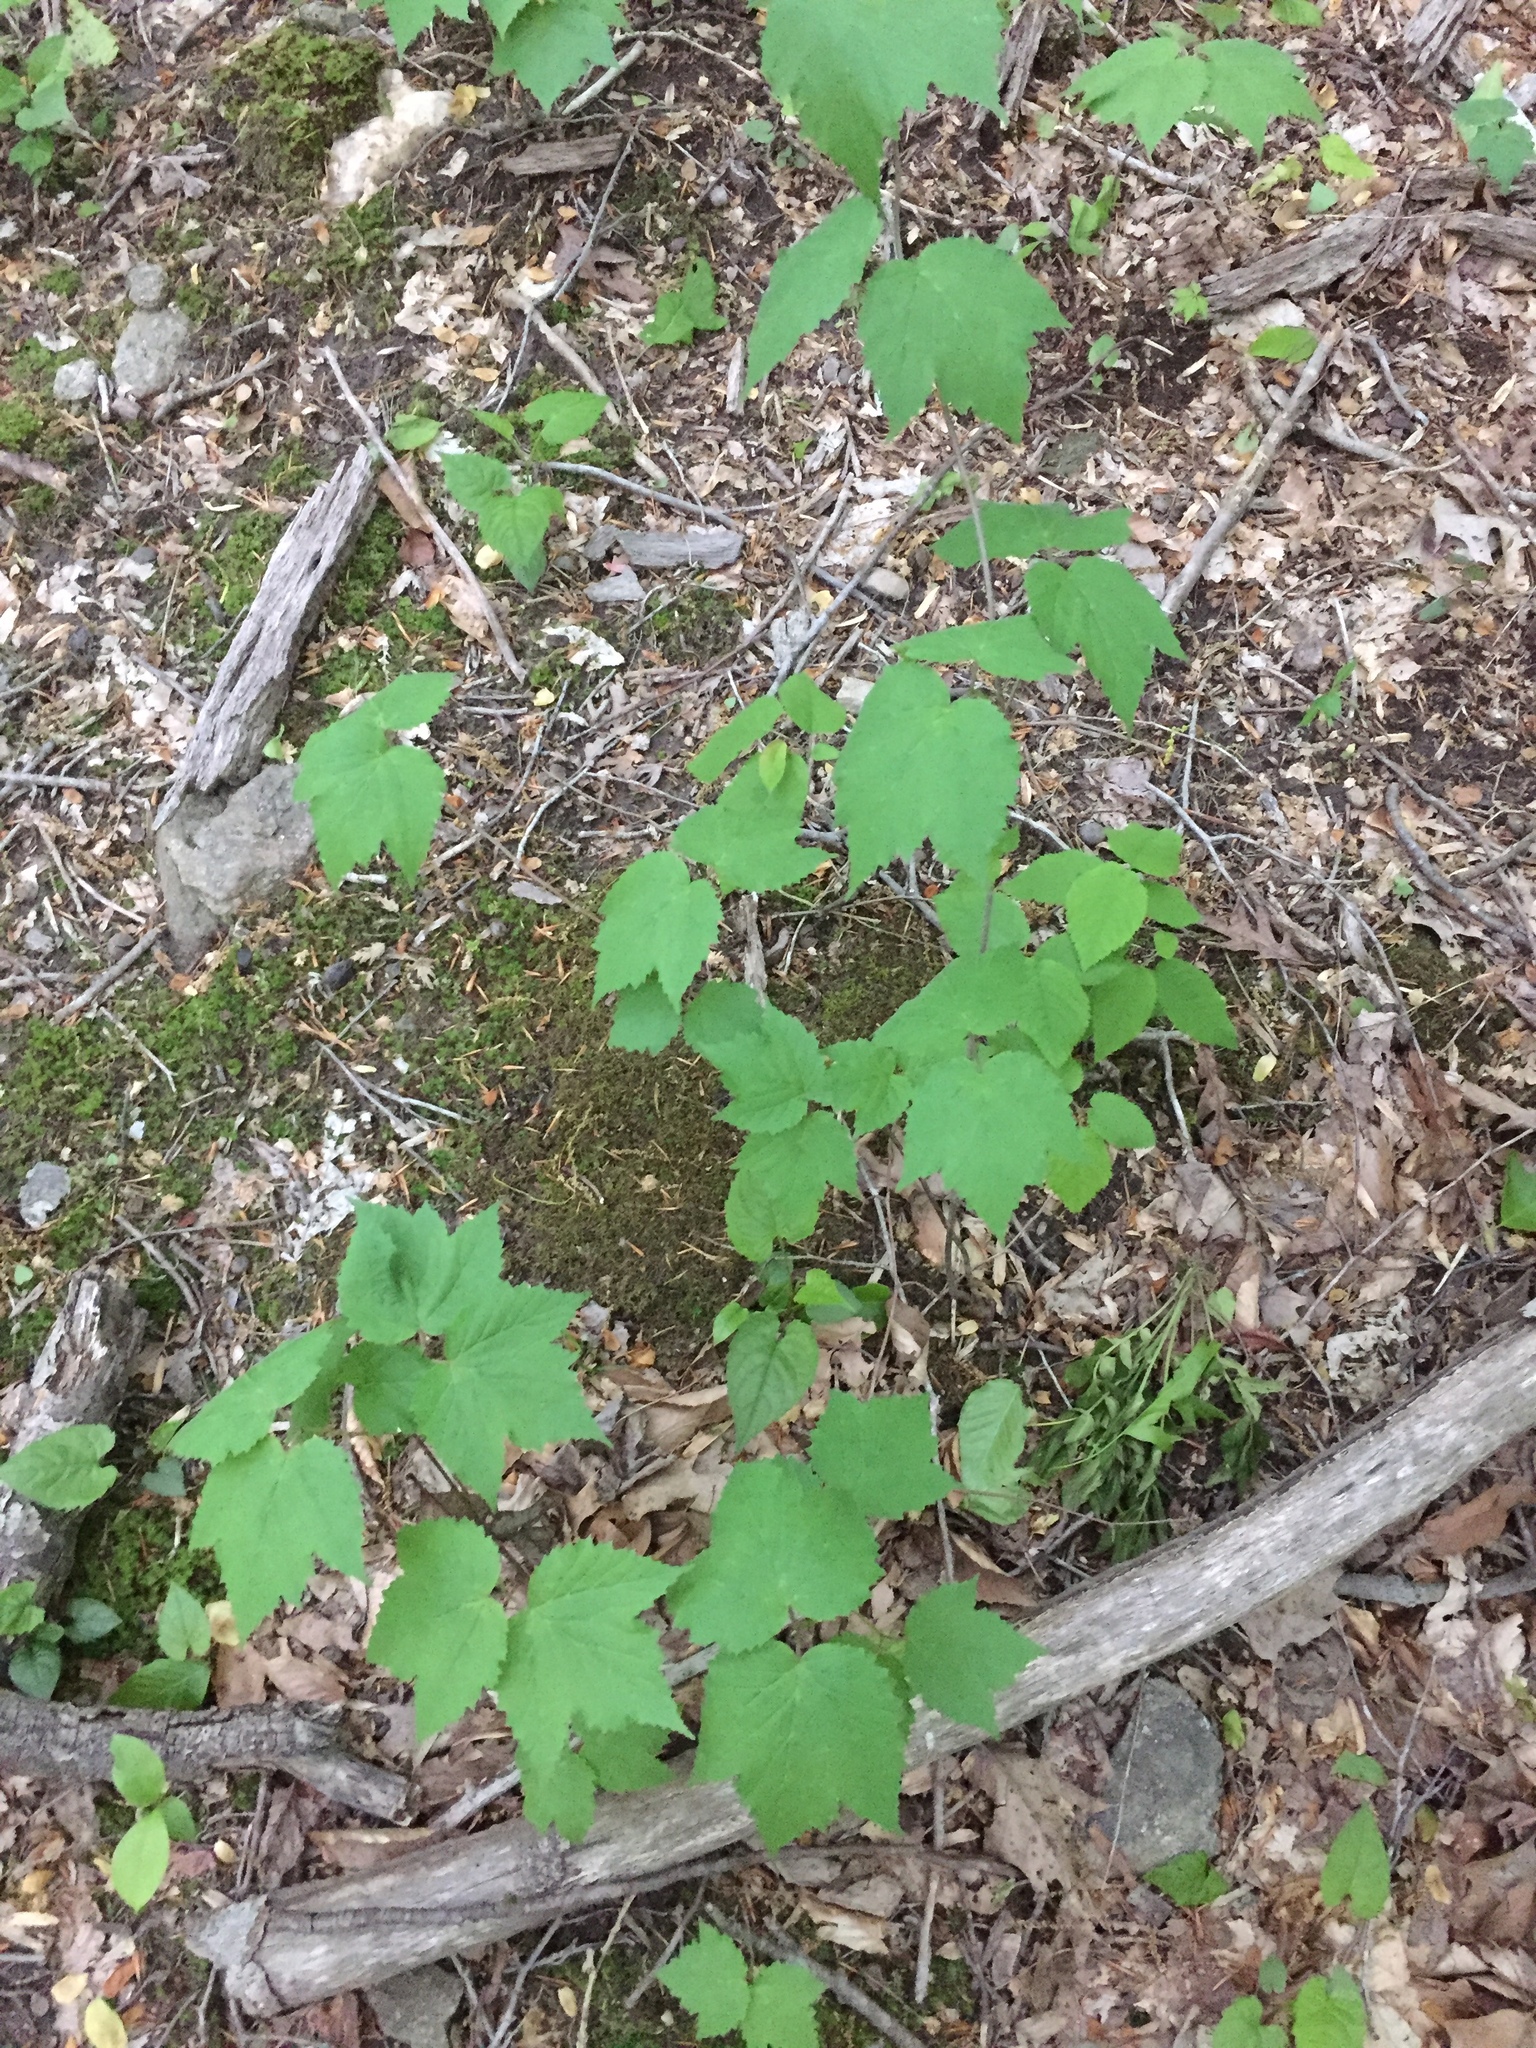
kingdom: Plantae
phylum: Tracheophyta
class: Magnoliopsida
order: Dipsacales
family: Viburnaceae
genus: Viburnum
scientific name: Viburnum acerifolium
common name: Dockmackie
